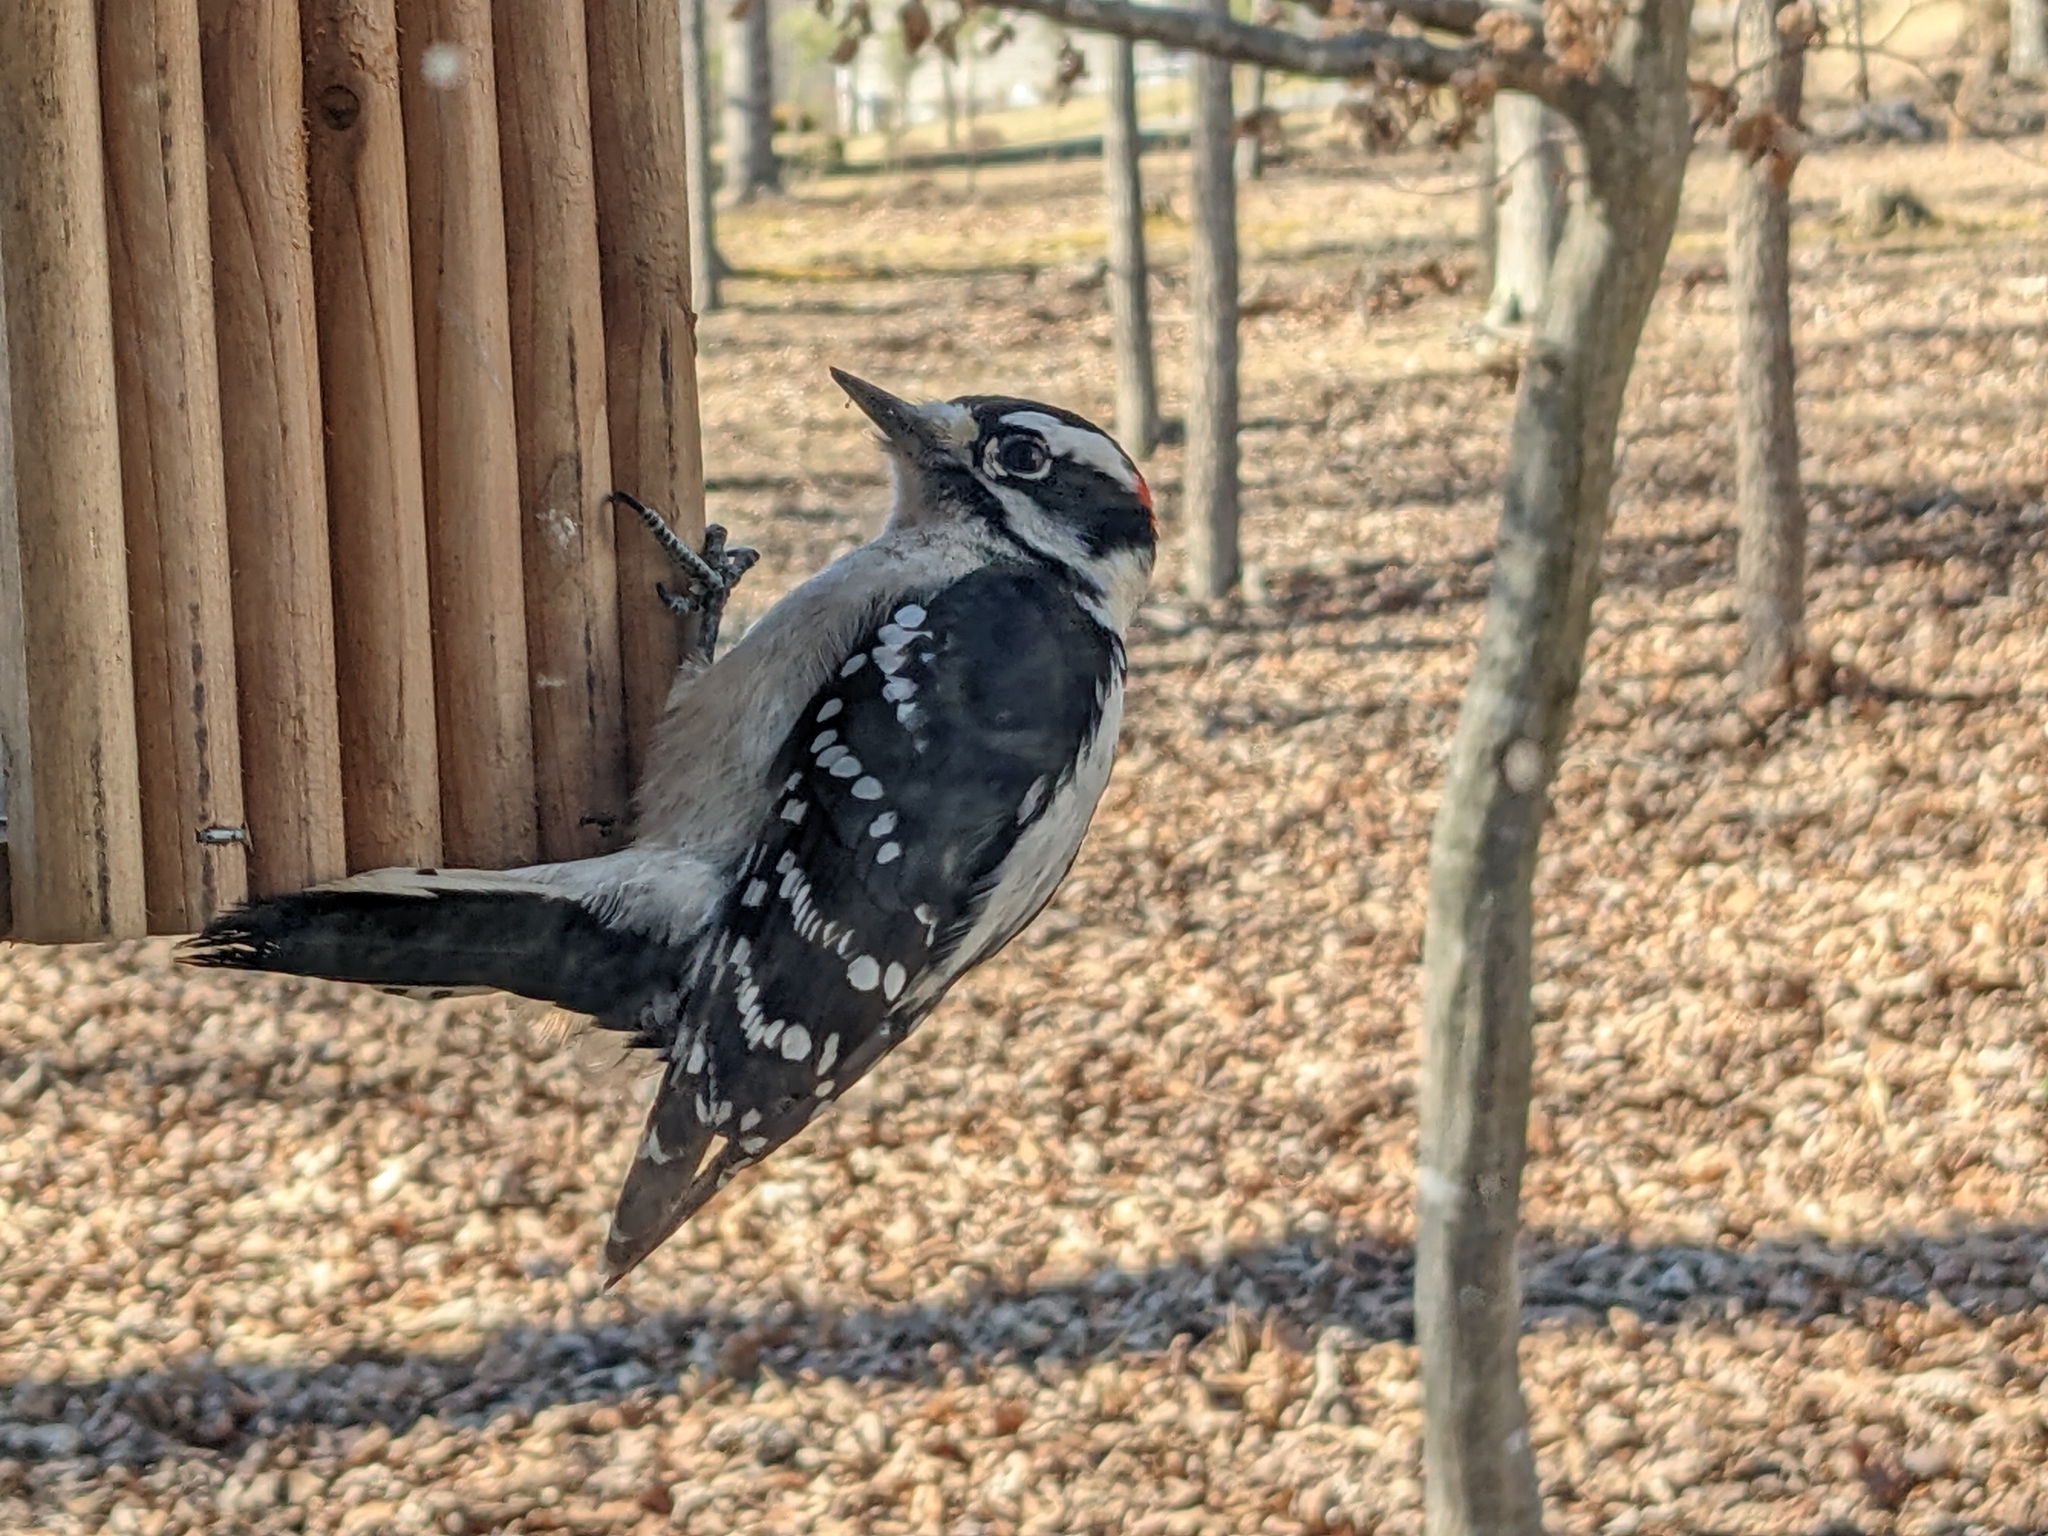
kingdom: Animalia
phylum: Chordata
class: Aves
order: Piciformes
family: Picidae
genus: Dryobates
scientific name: Dryobates pubescens
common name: Downy woodpecker
